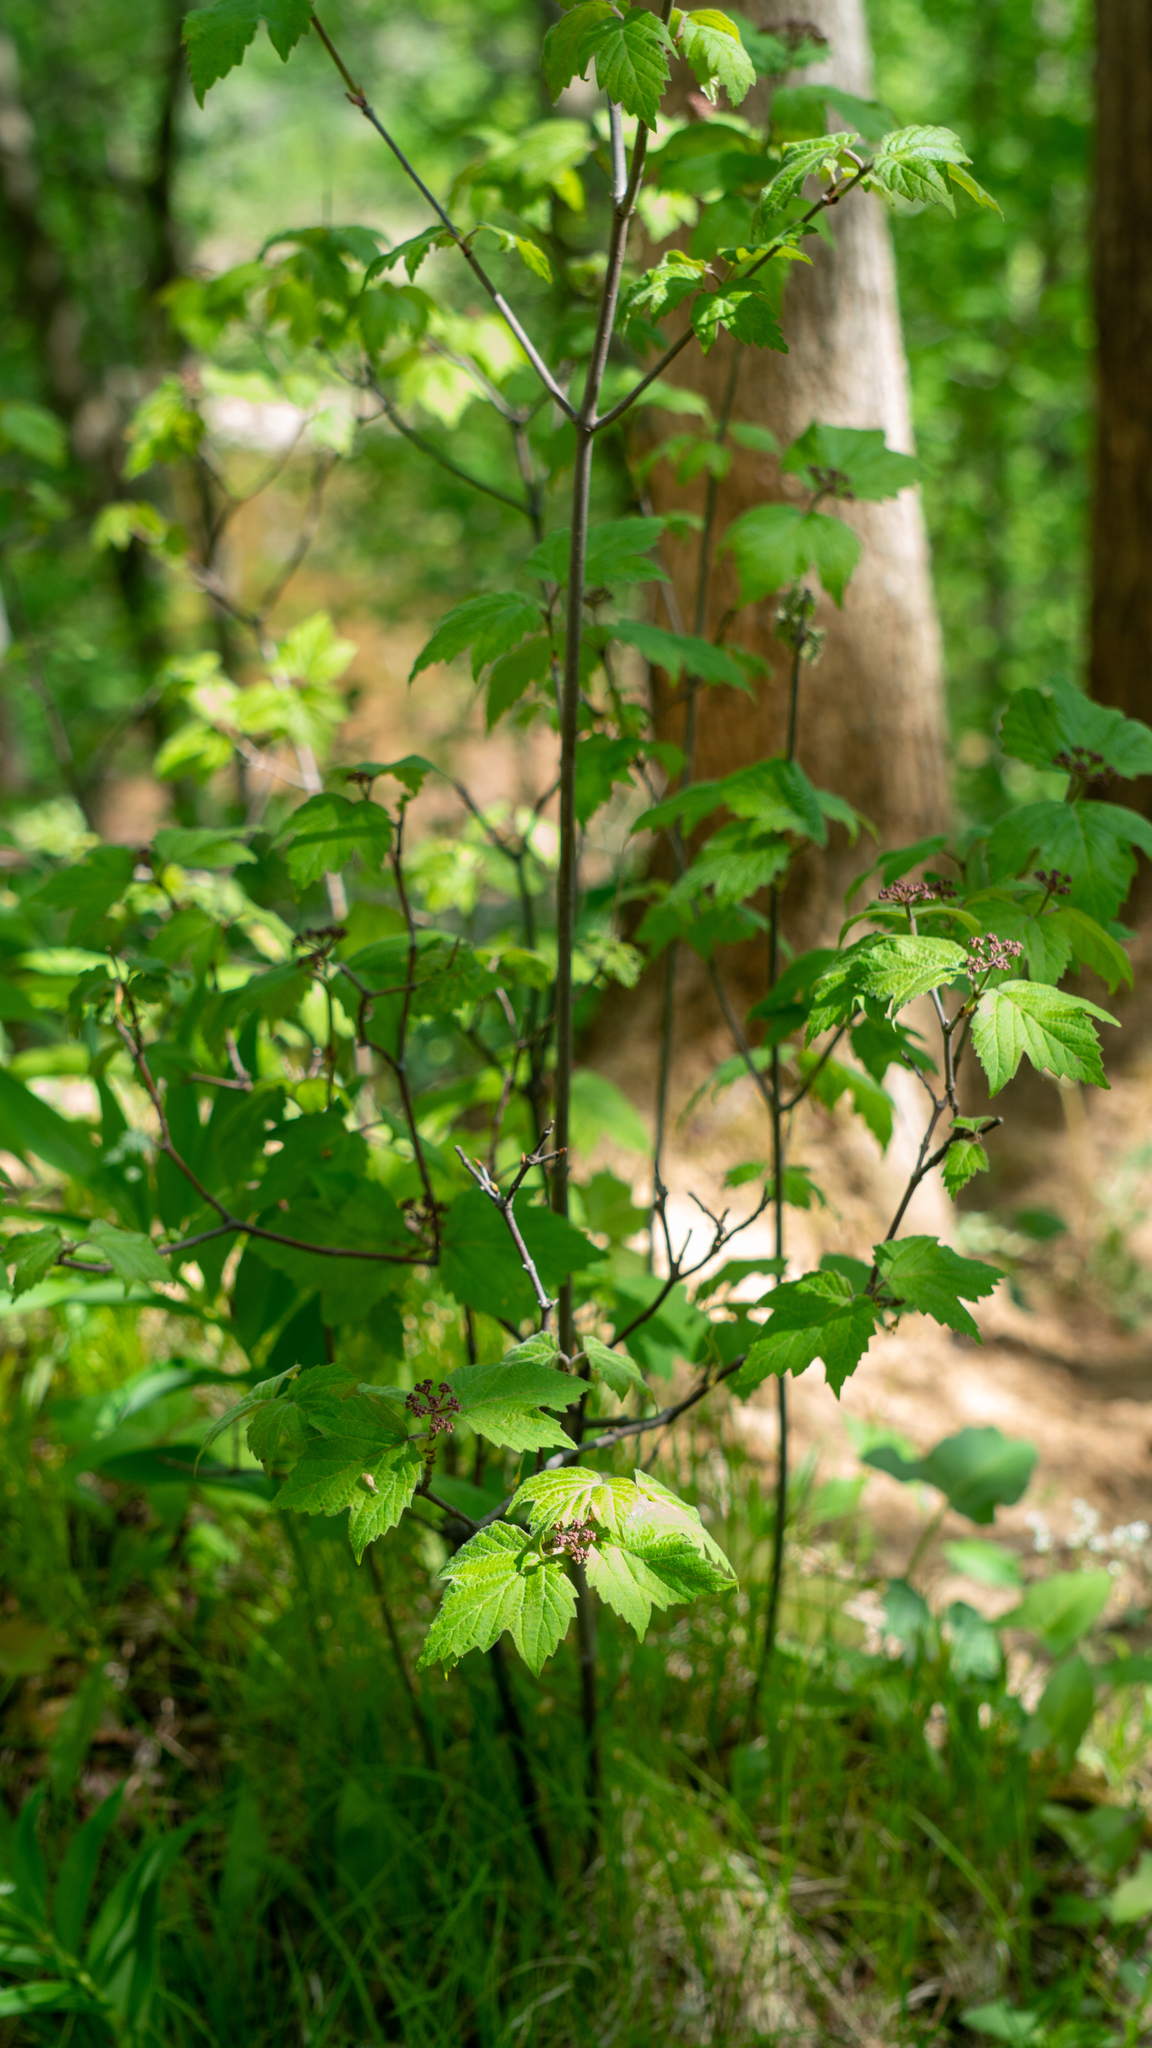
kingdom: Plantae
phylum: Tracheophyta
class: Magnoliopsida
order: Dipsacales
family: Viburnaceae
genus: Viburnum
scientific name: Viburnum acerifolium
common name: Dockmackie
